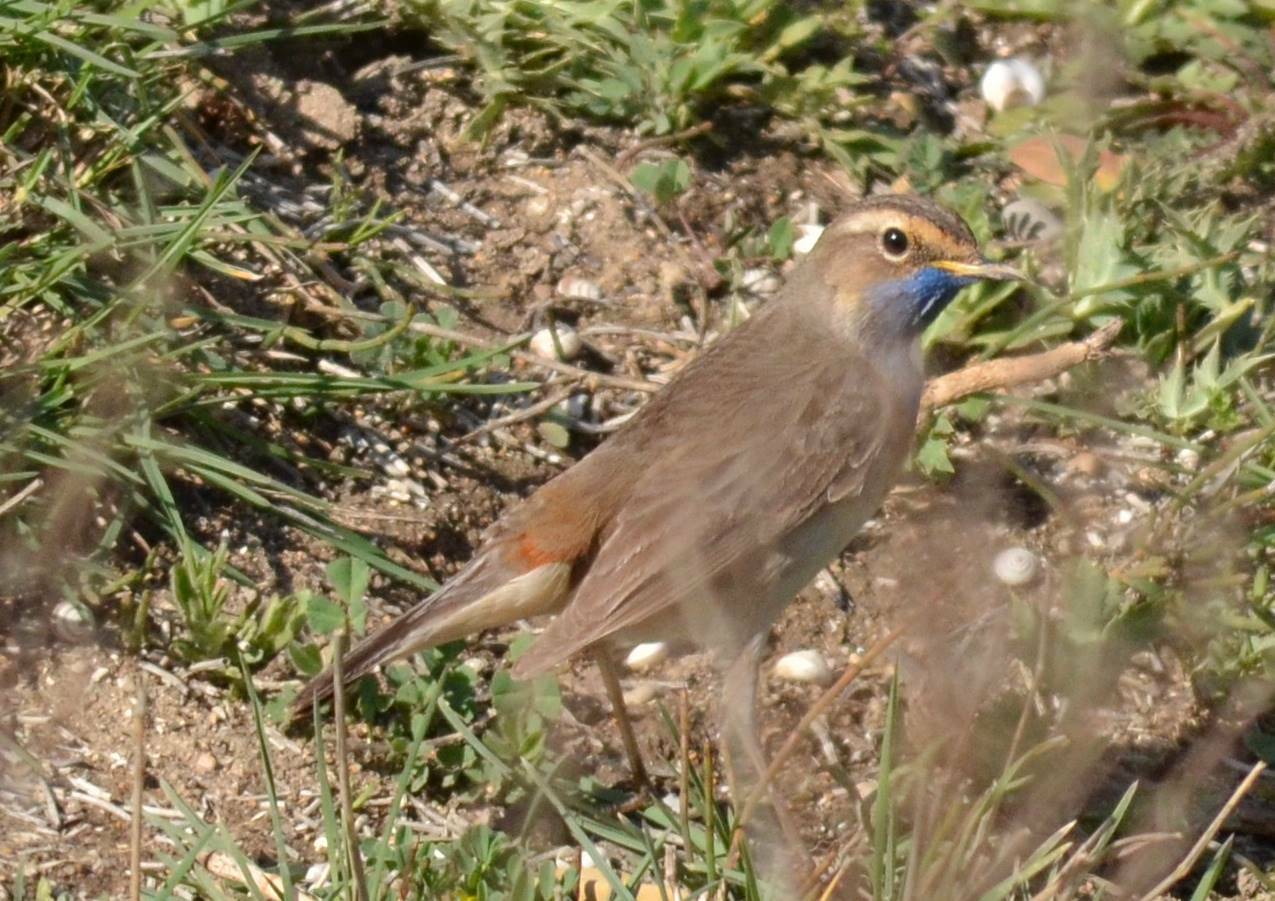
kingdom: Animalia
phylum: Chordata
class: Aves
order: Passeriformes
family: Muscicapidae
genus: Luscinia
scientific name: Luscinia svecica
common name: Bluethroat
